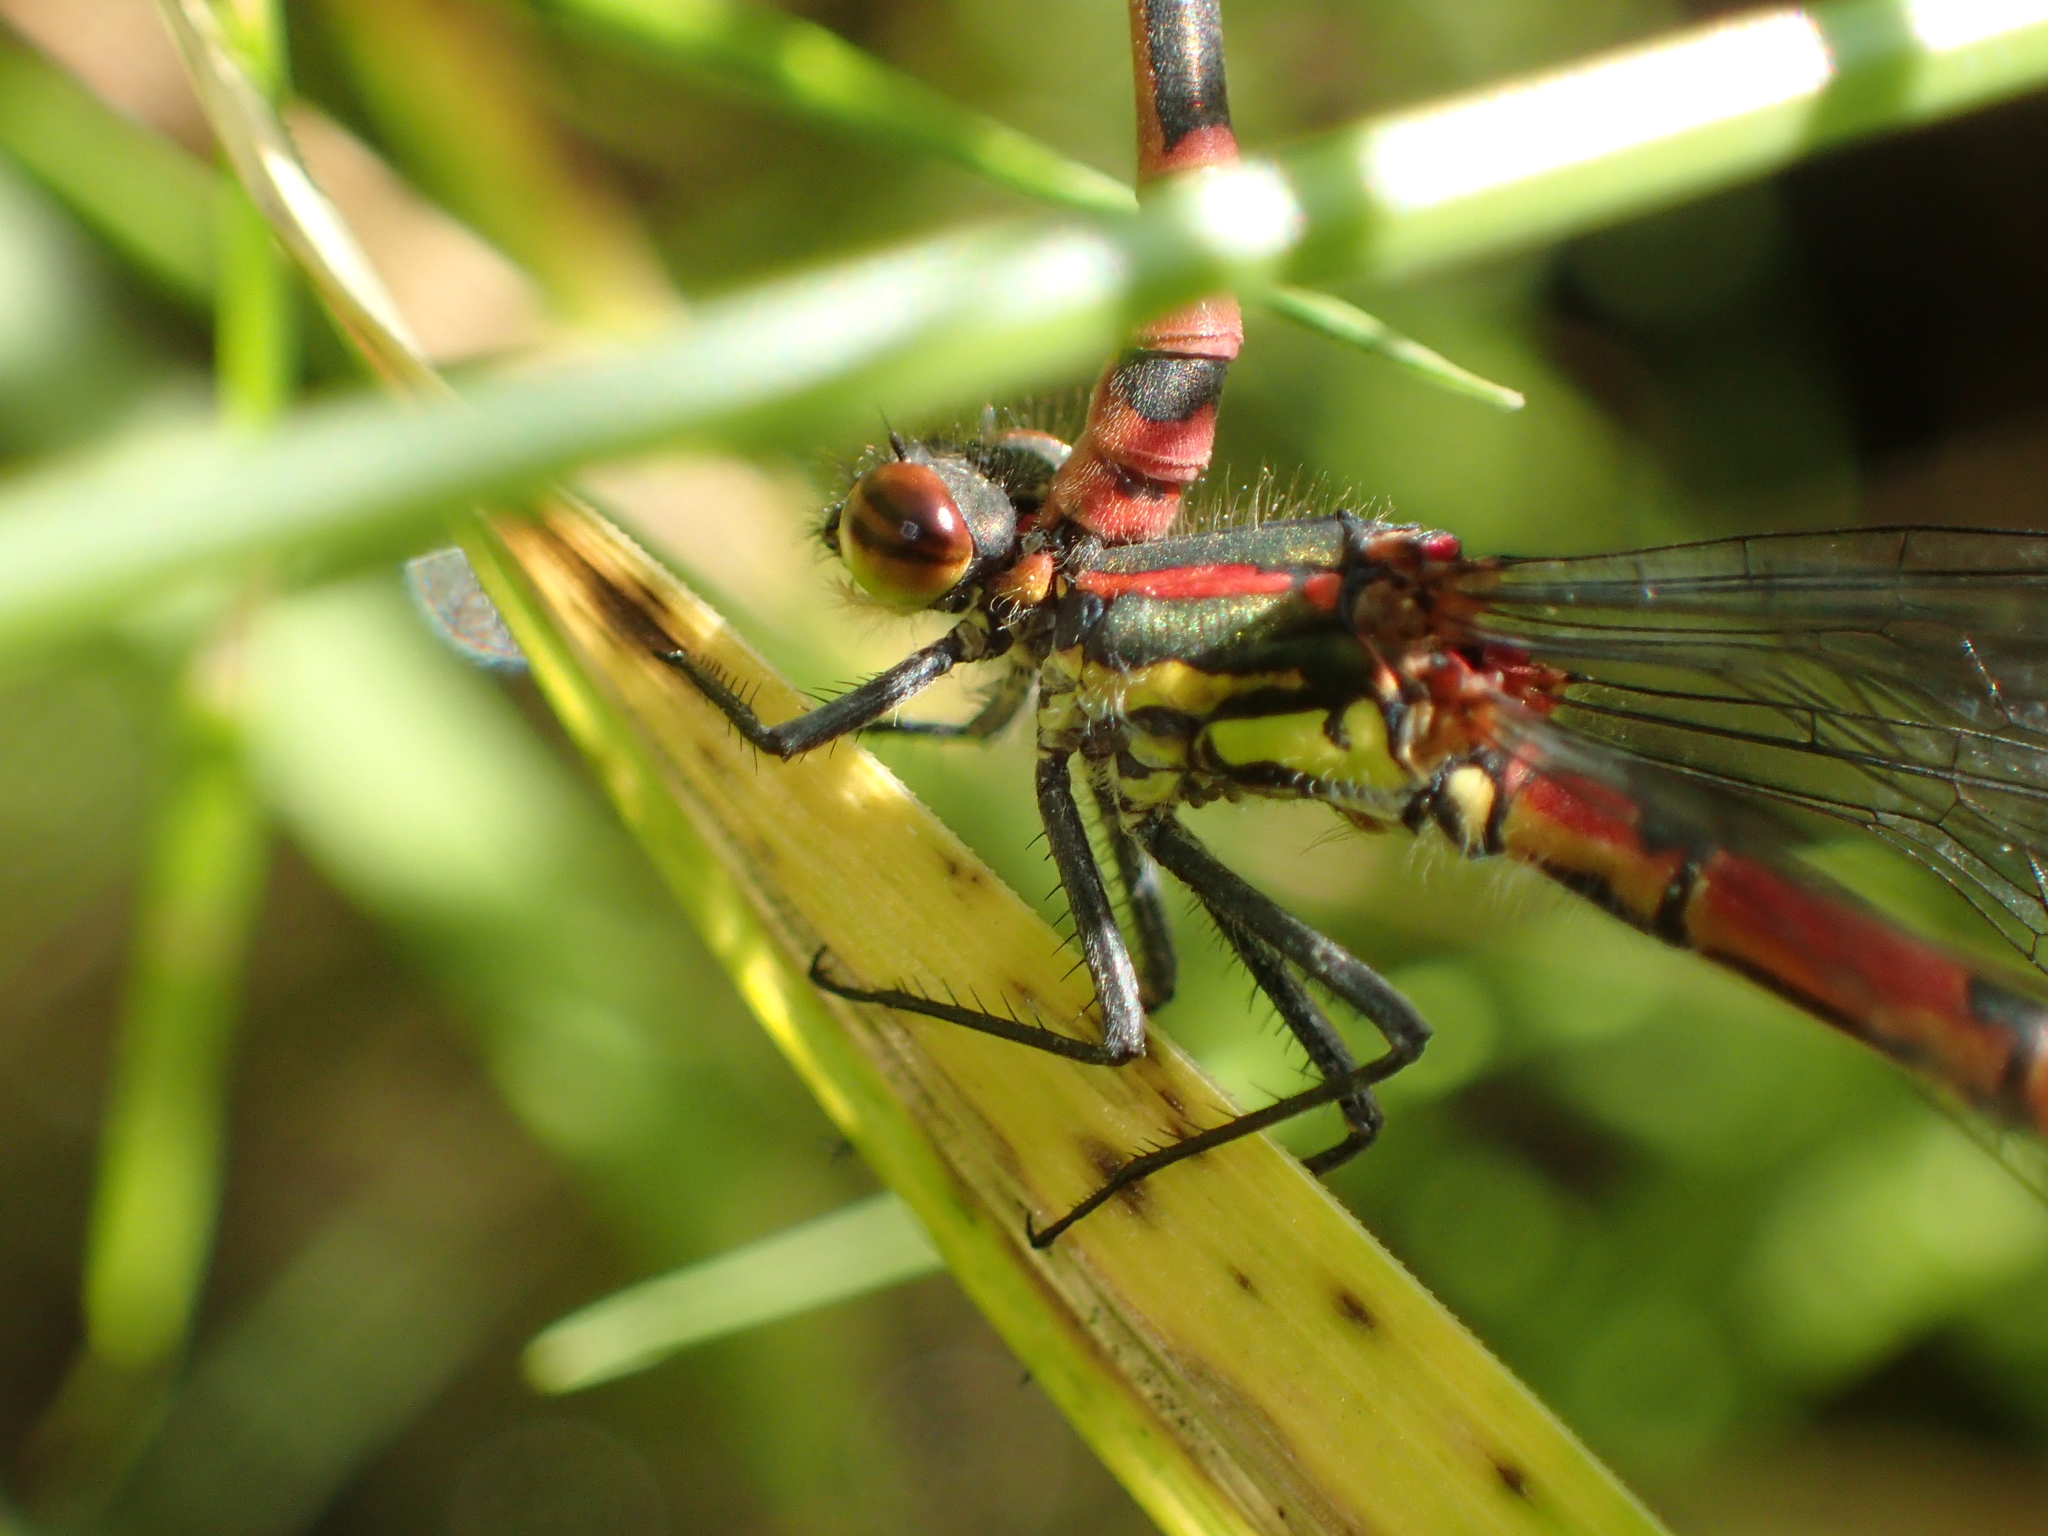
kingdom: Animalia
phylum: Arthropoda
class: Insecta
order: Odonata
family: Coenagrionidae
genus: Pyrrhosoma
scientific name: Pyrrhosoma nymphula
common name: Large red damsel
